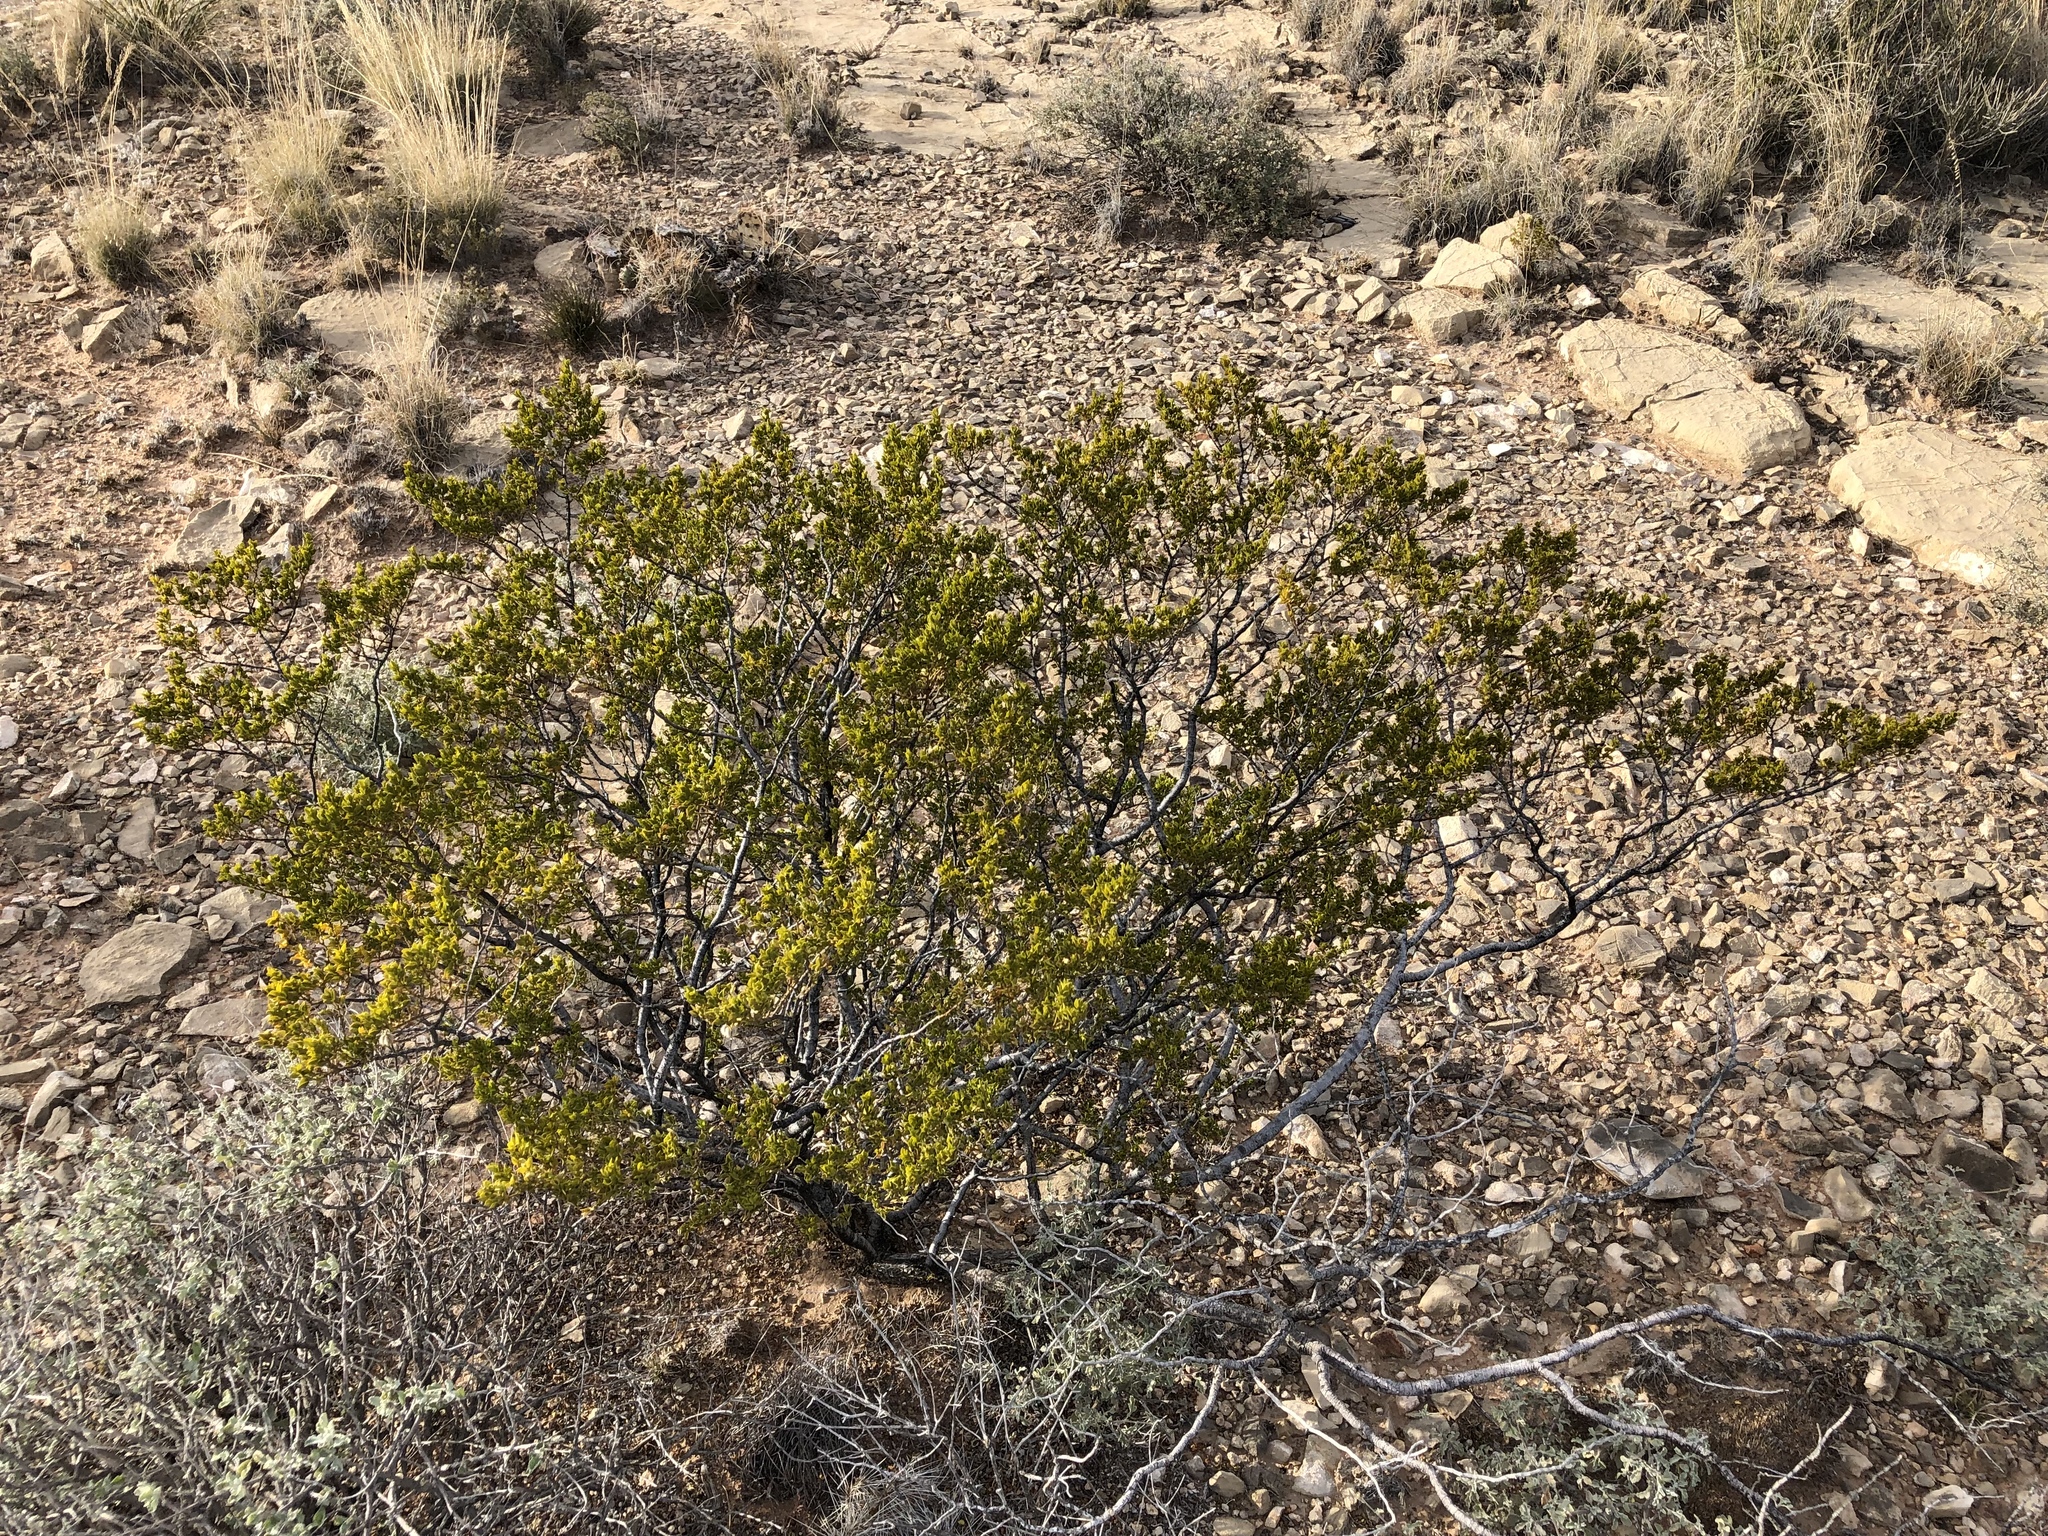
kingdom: Plantae
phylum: Tracheophyta
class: Magnoliopsida
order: Zygophyllales
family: Zygophyllaceae
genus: Larrea
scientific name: Larrea tridentata
